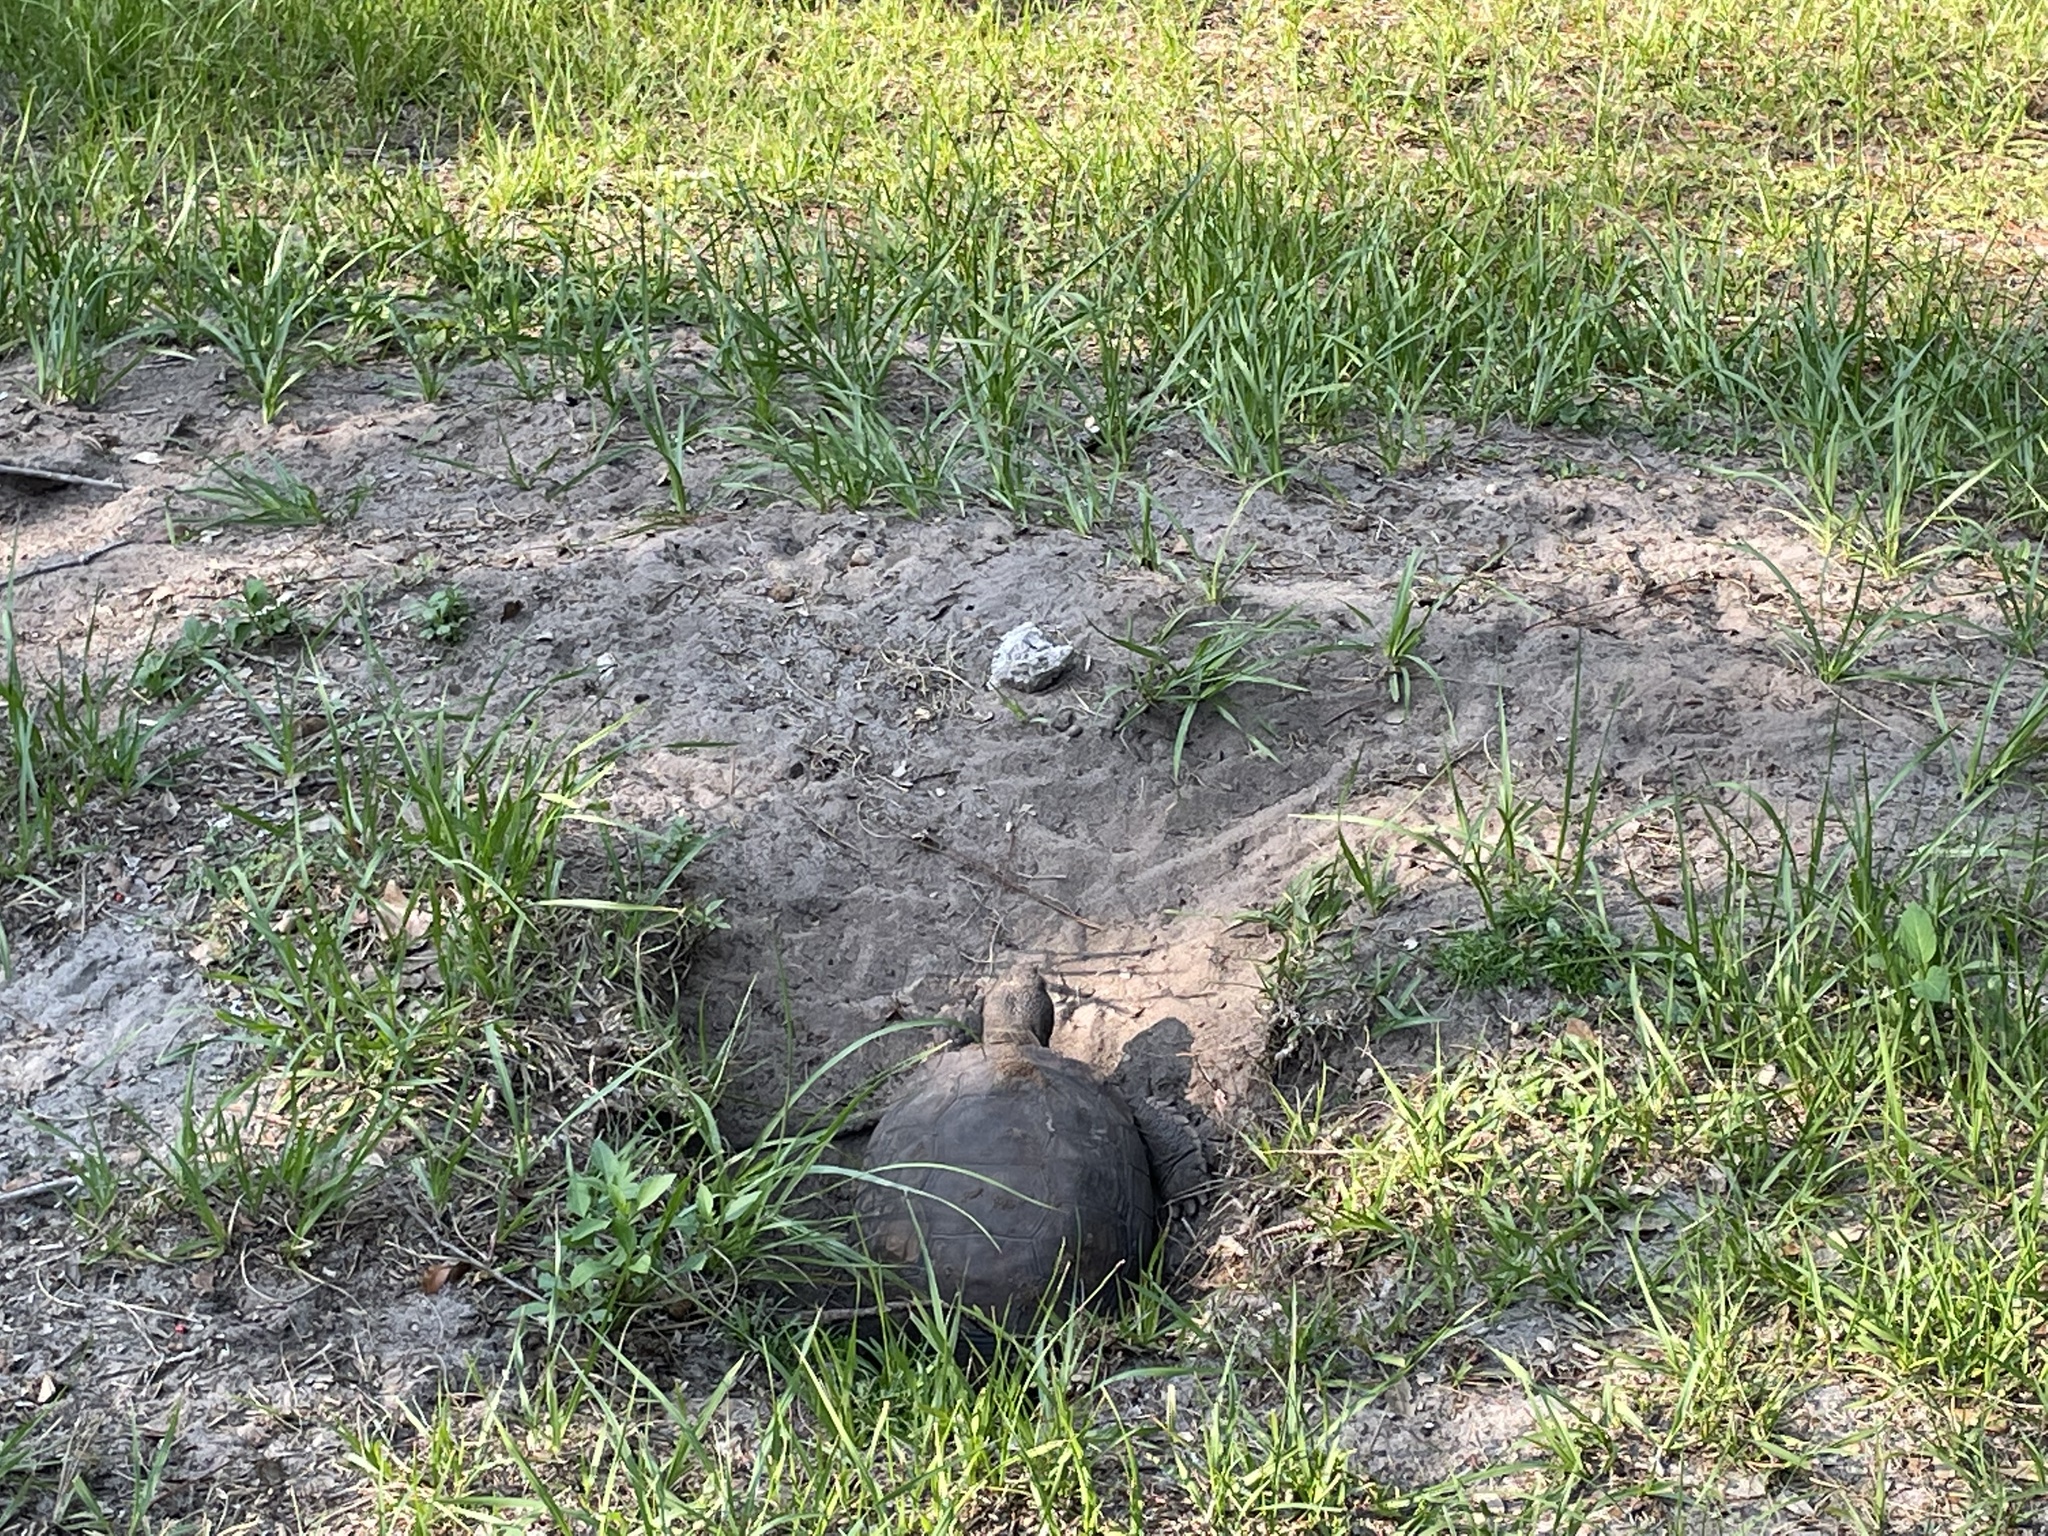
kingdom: Animalia
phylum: Chordata
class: Testudines
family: Testudinidae
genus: Gopherus
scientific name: Gopherus polyphemus
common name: Florida gopher tortoise
